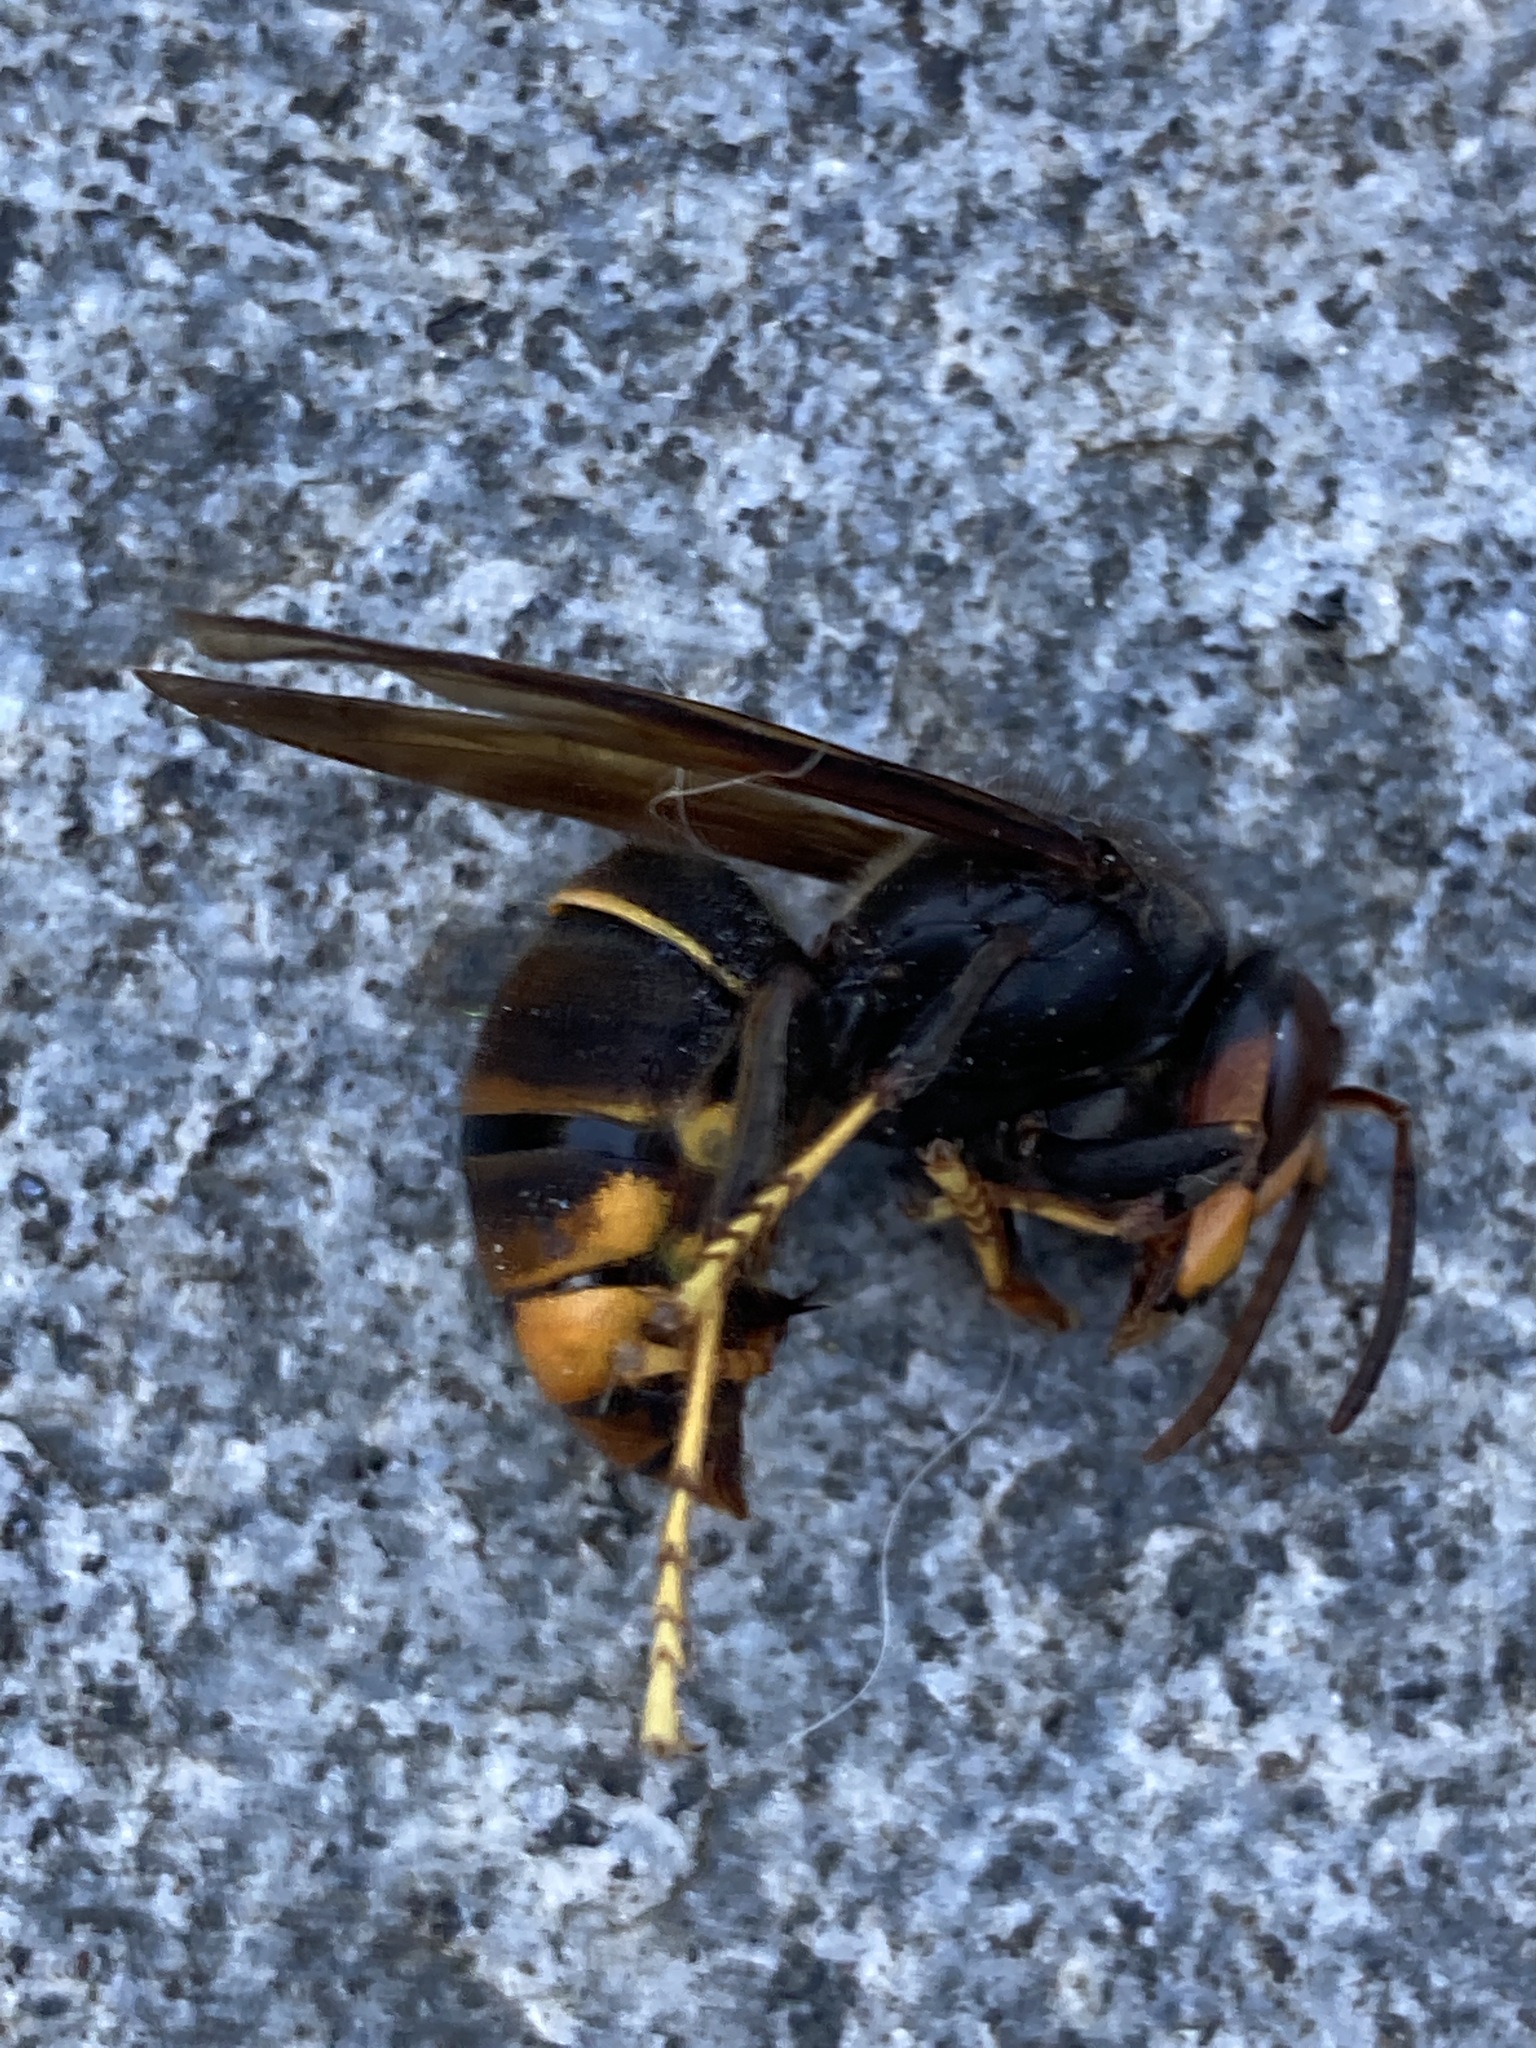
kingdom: Animalia
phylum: Arthropoda
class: Insecta
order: Hymenoptera
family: Vespidae
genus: Vespa
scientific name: Vespa velutina
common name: Asian hornet
